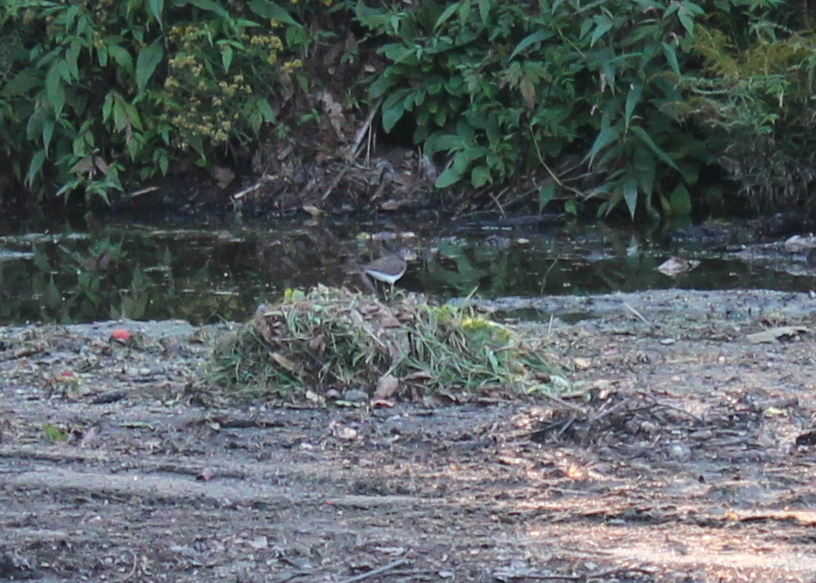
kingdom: Animalia
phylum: Chordata
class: Aves
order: Charadriiformes
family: Scolopacidae
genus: Tringa
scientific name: Tringa solitaria
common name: Solitary sandpiper
